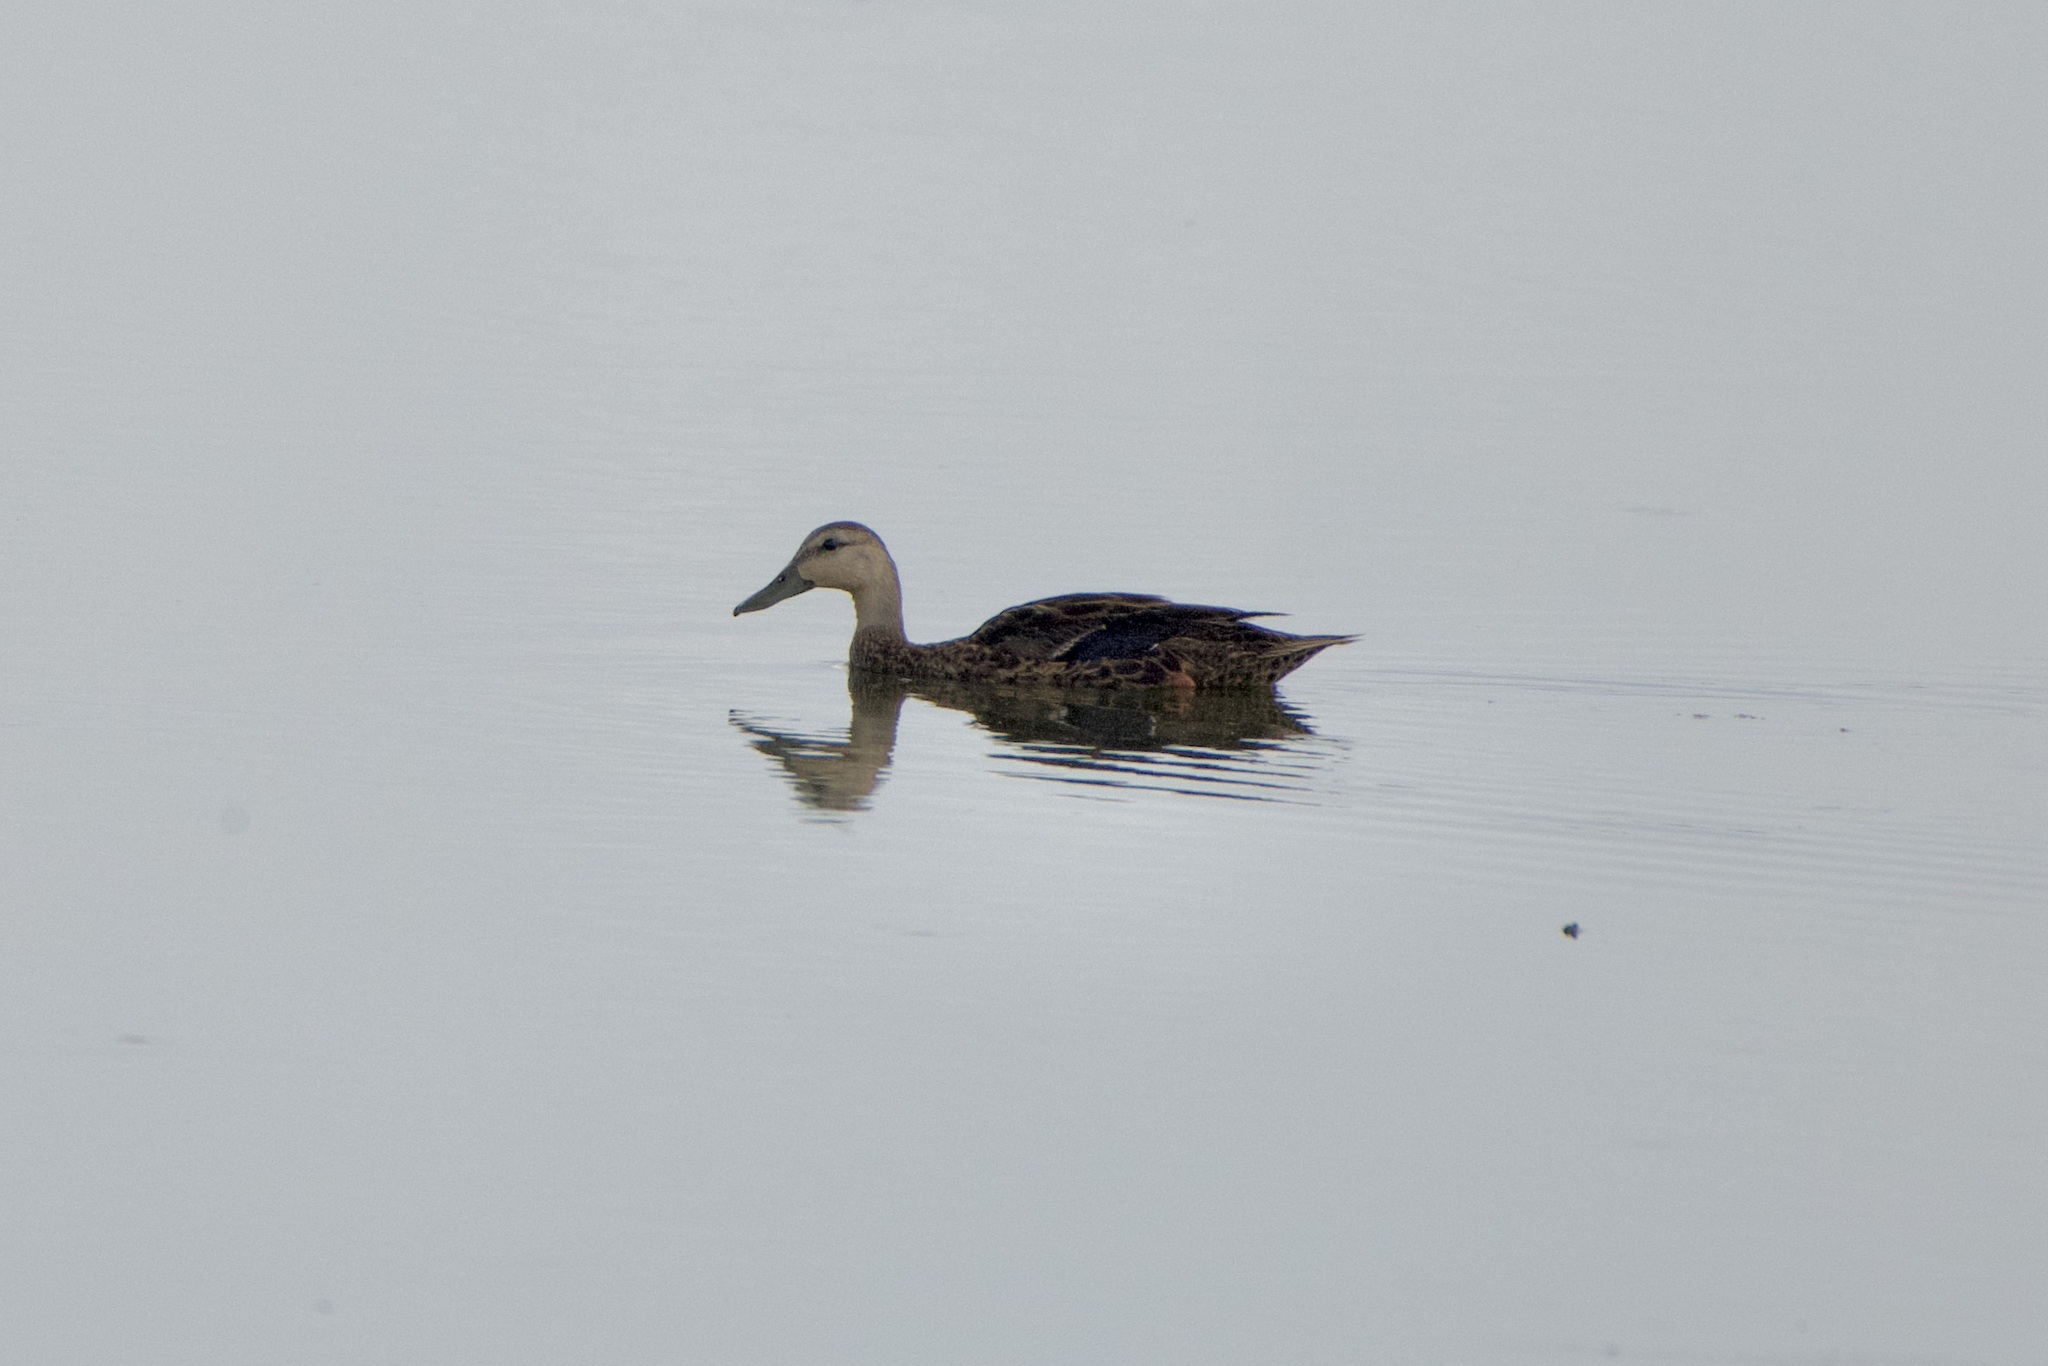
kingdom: Animalia
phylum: Chordata
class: Aves
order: Anseriformes
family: Anatidae
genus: Anas
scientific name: Anas fulvigula
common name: Mottled duck
